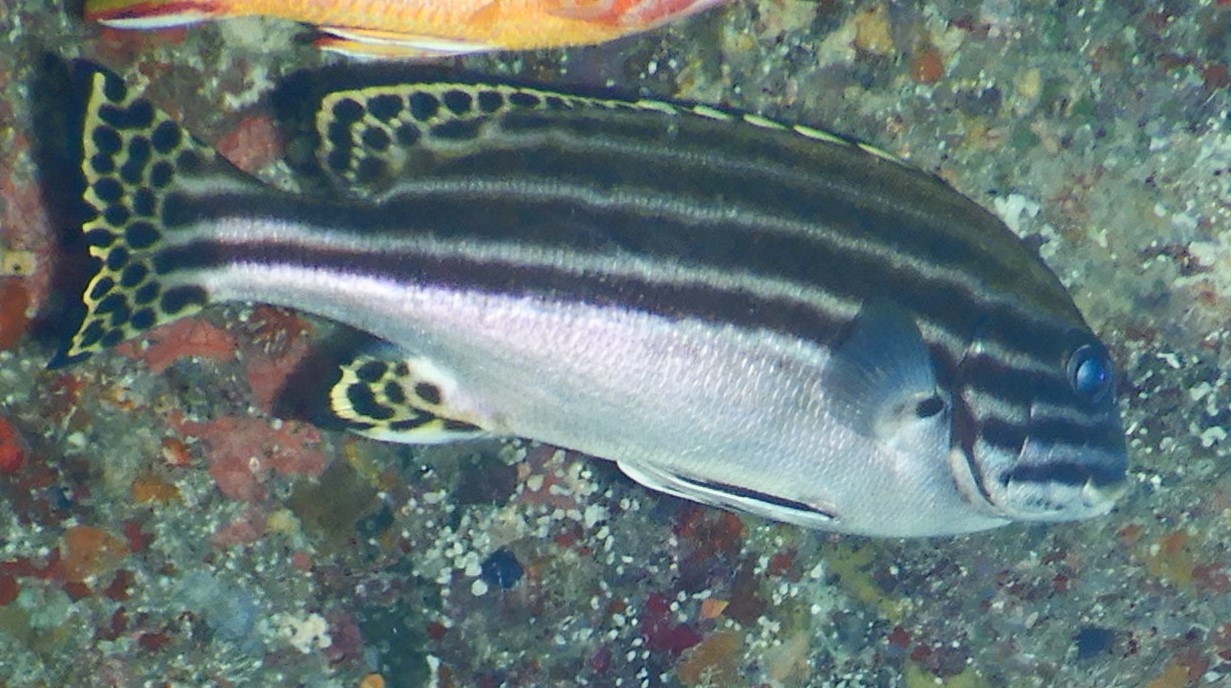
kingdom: Animalia
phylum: Chordata
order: Perciformes
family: Haemulidae
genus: Plectorhinchus
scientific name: Plectorhinchus lessonii
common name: Lesson's thicklip
